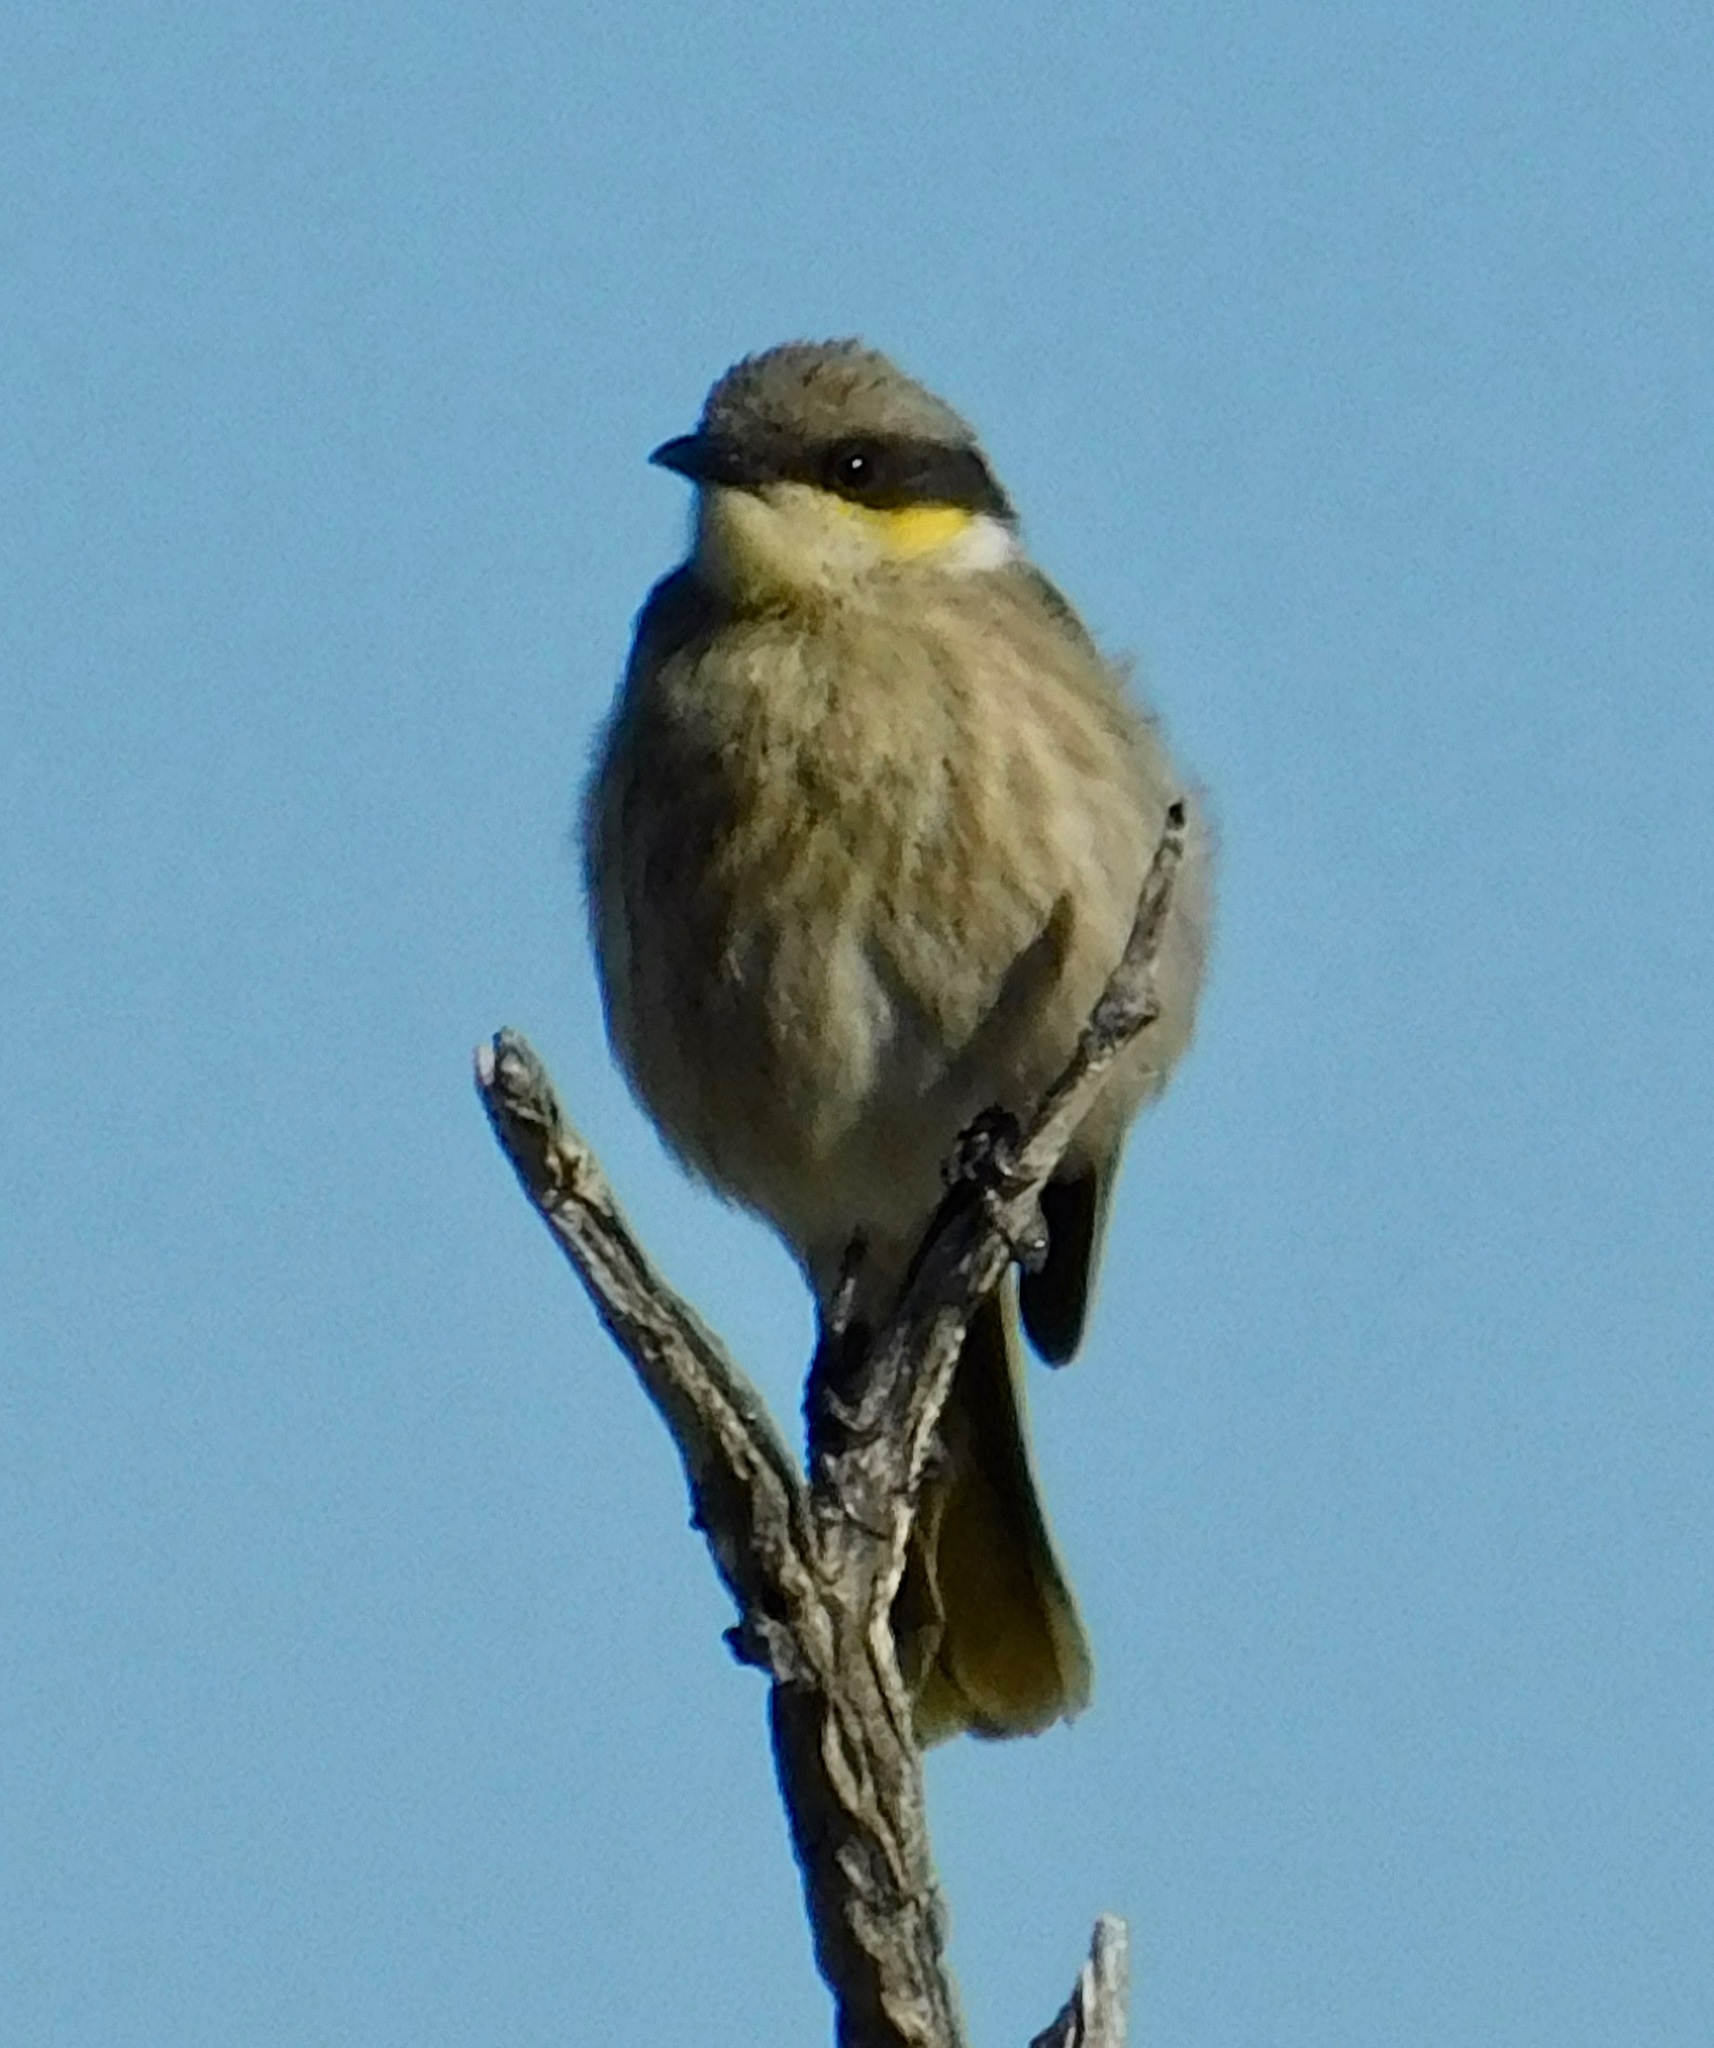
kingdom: Animalia
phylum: Chordata
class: Aves
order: Passeriformes
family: Meliphagidae
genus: Gavicalis
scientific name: Gavicalis virescens
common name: Singing honeyeater
